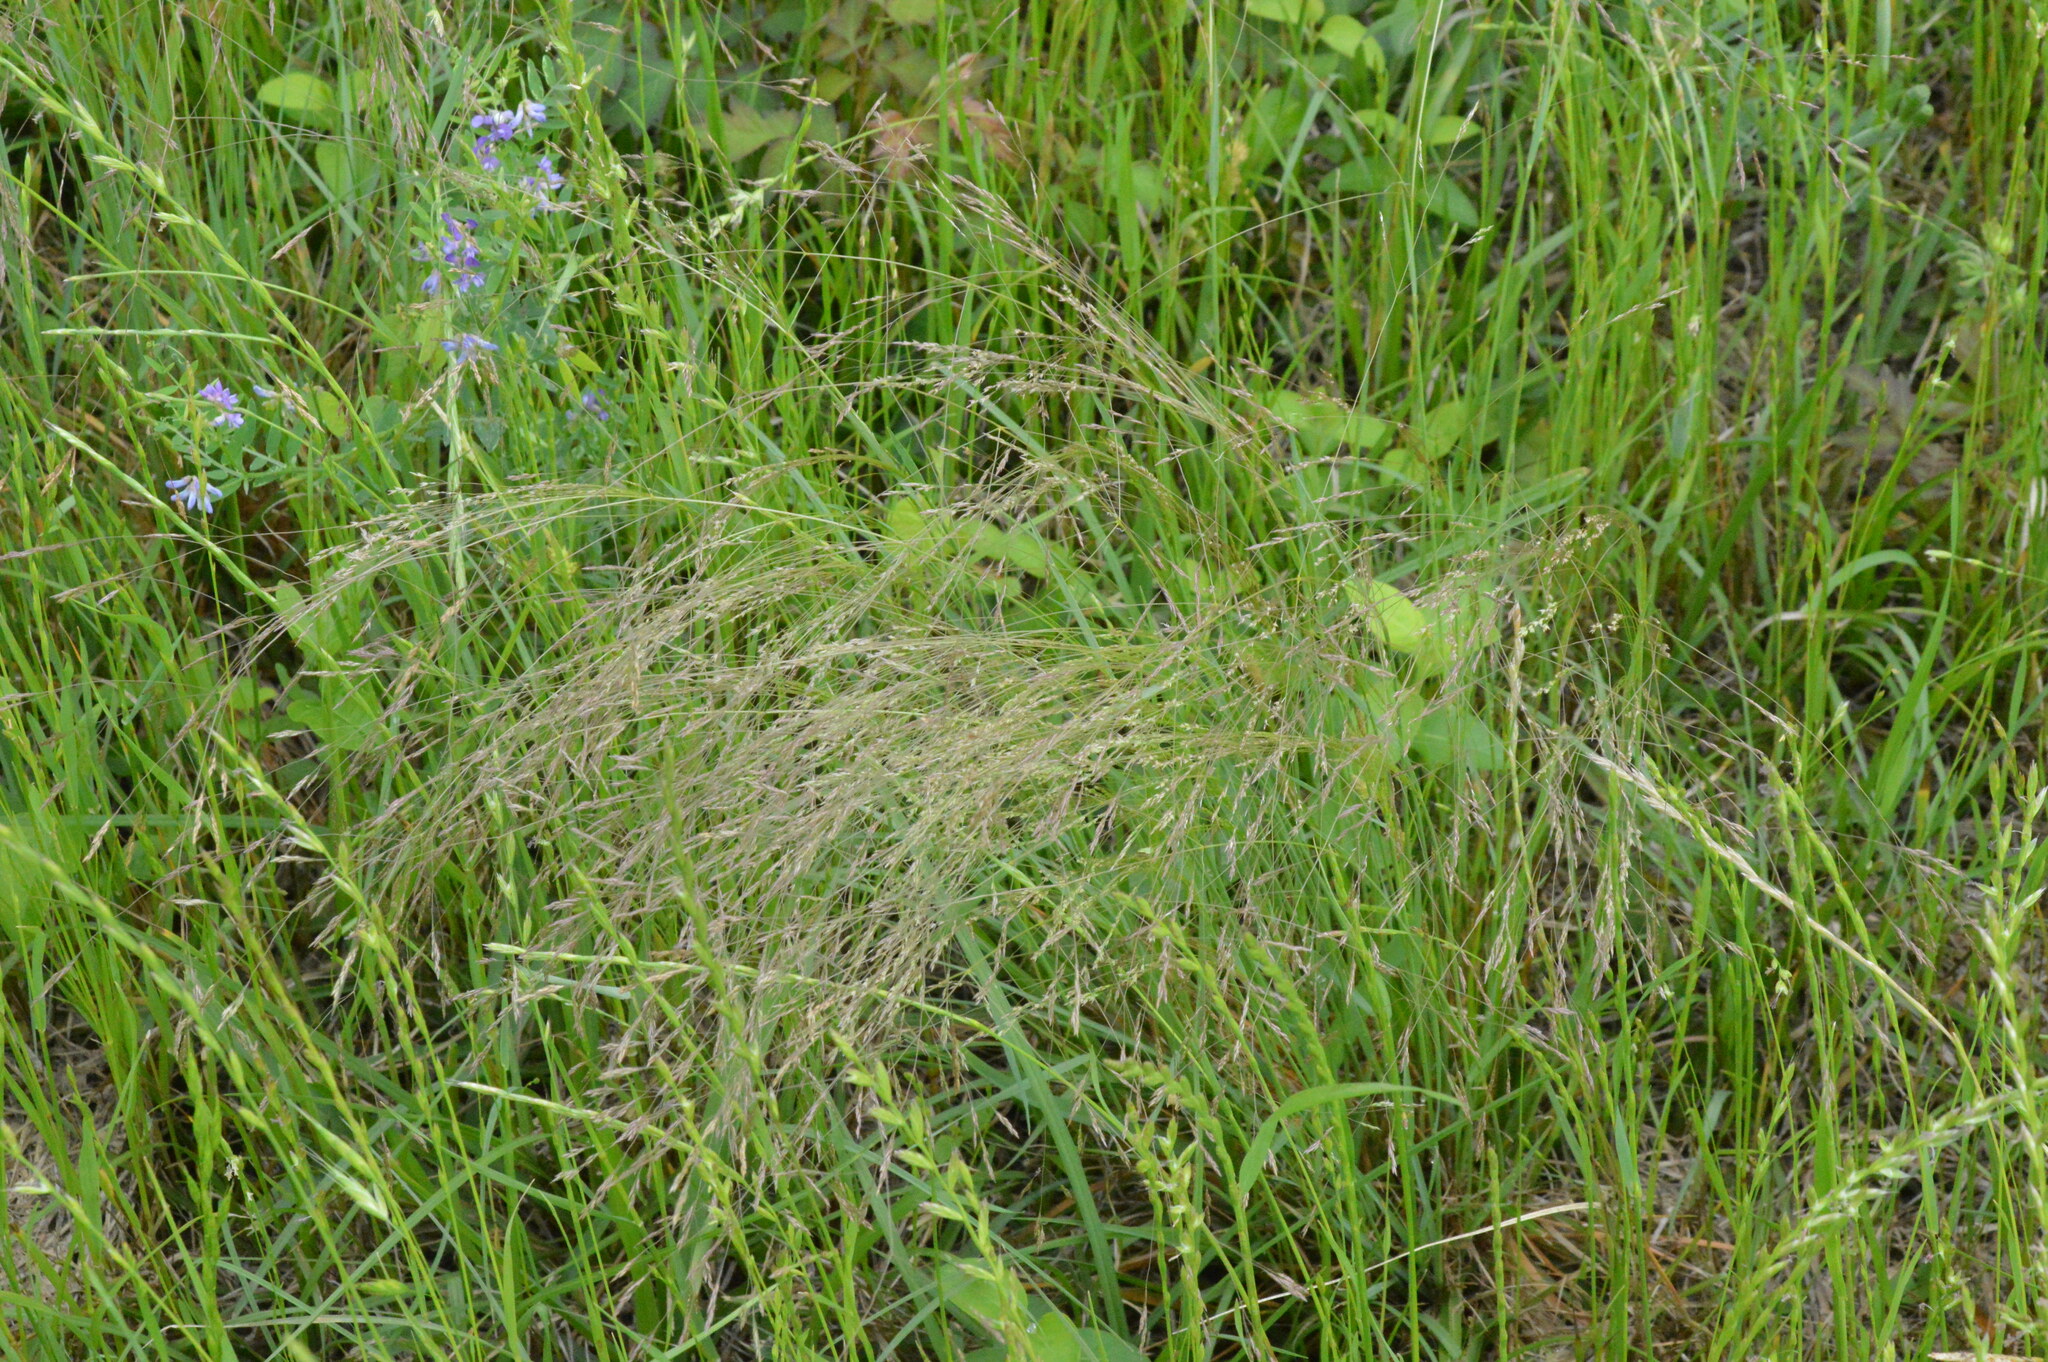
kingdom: Plantae
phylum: Tracheophyta
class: Liliopsida
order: Poales
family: Poaceae
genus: Agrostis
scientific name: Agrostis hyemalis
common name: Small bent
